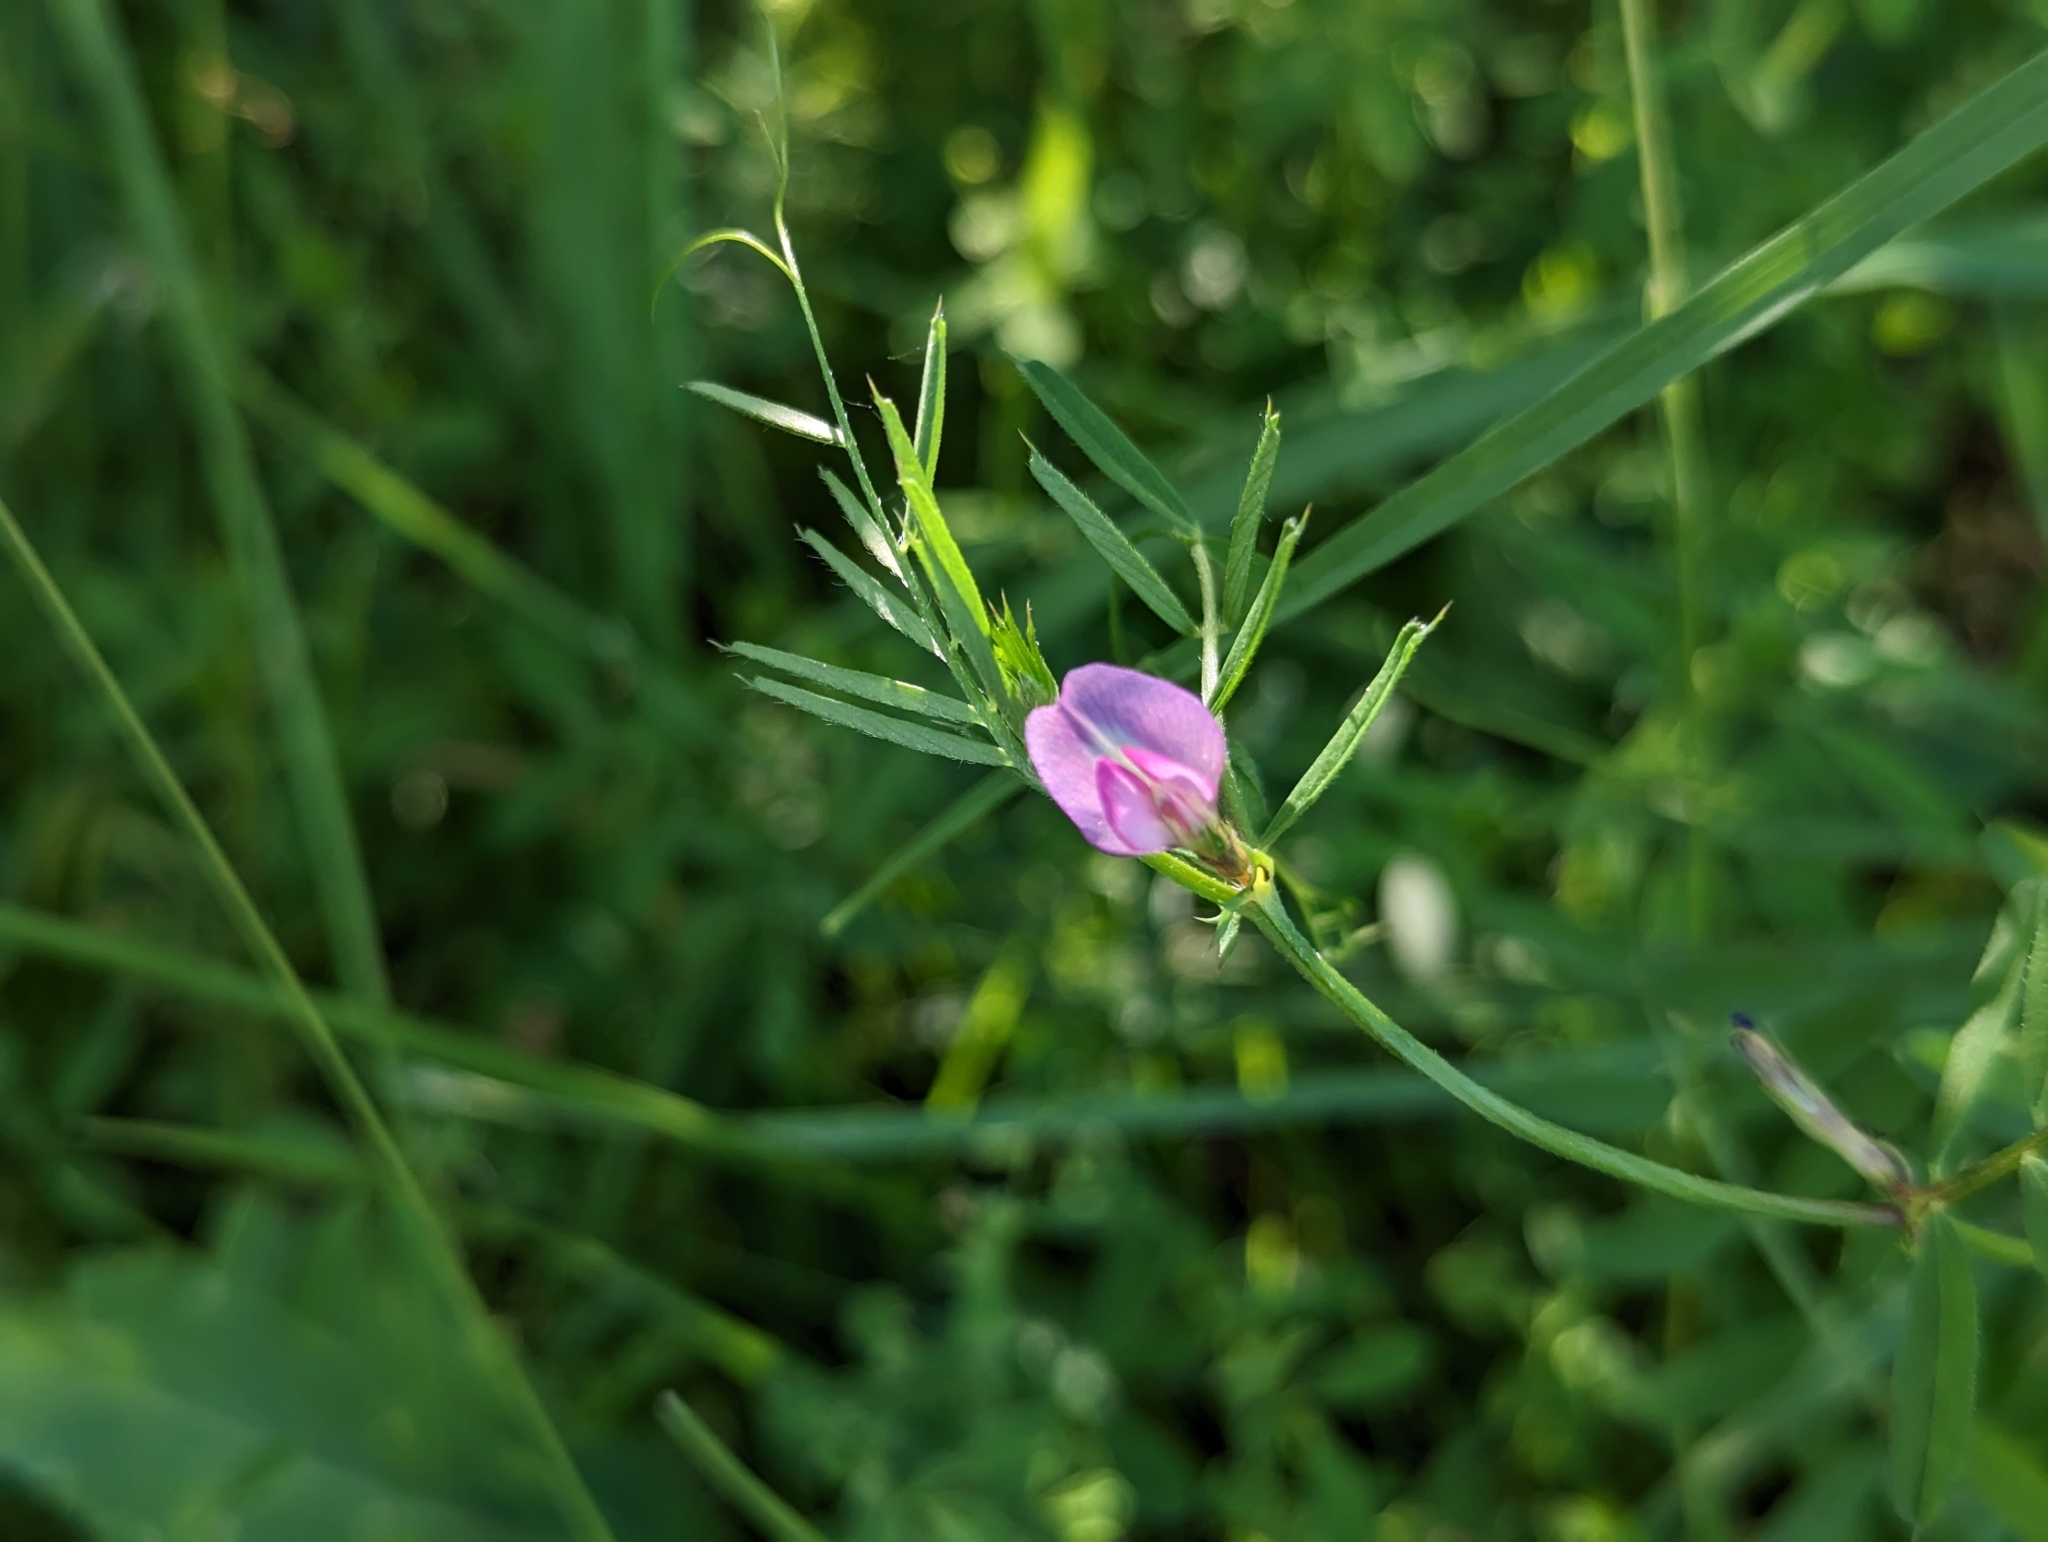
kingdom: Plantae
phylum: Tracheophyta
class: Magnoliopsida
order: Fabales
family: Fabaceae
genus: Vicia
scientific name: Vicia sativa
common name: Garden vetch
